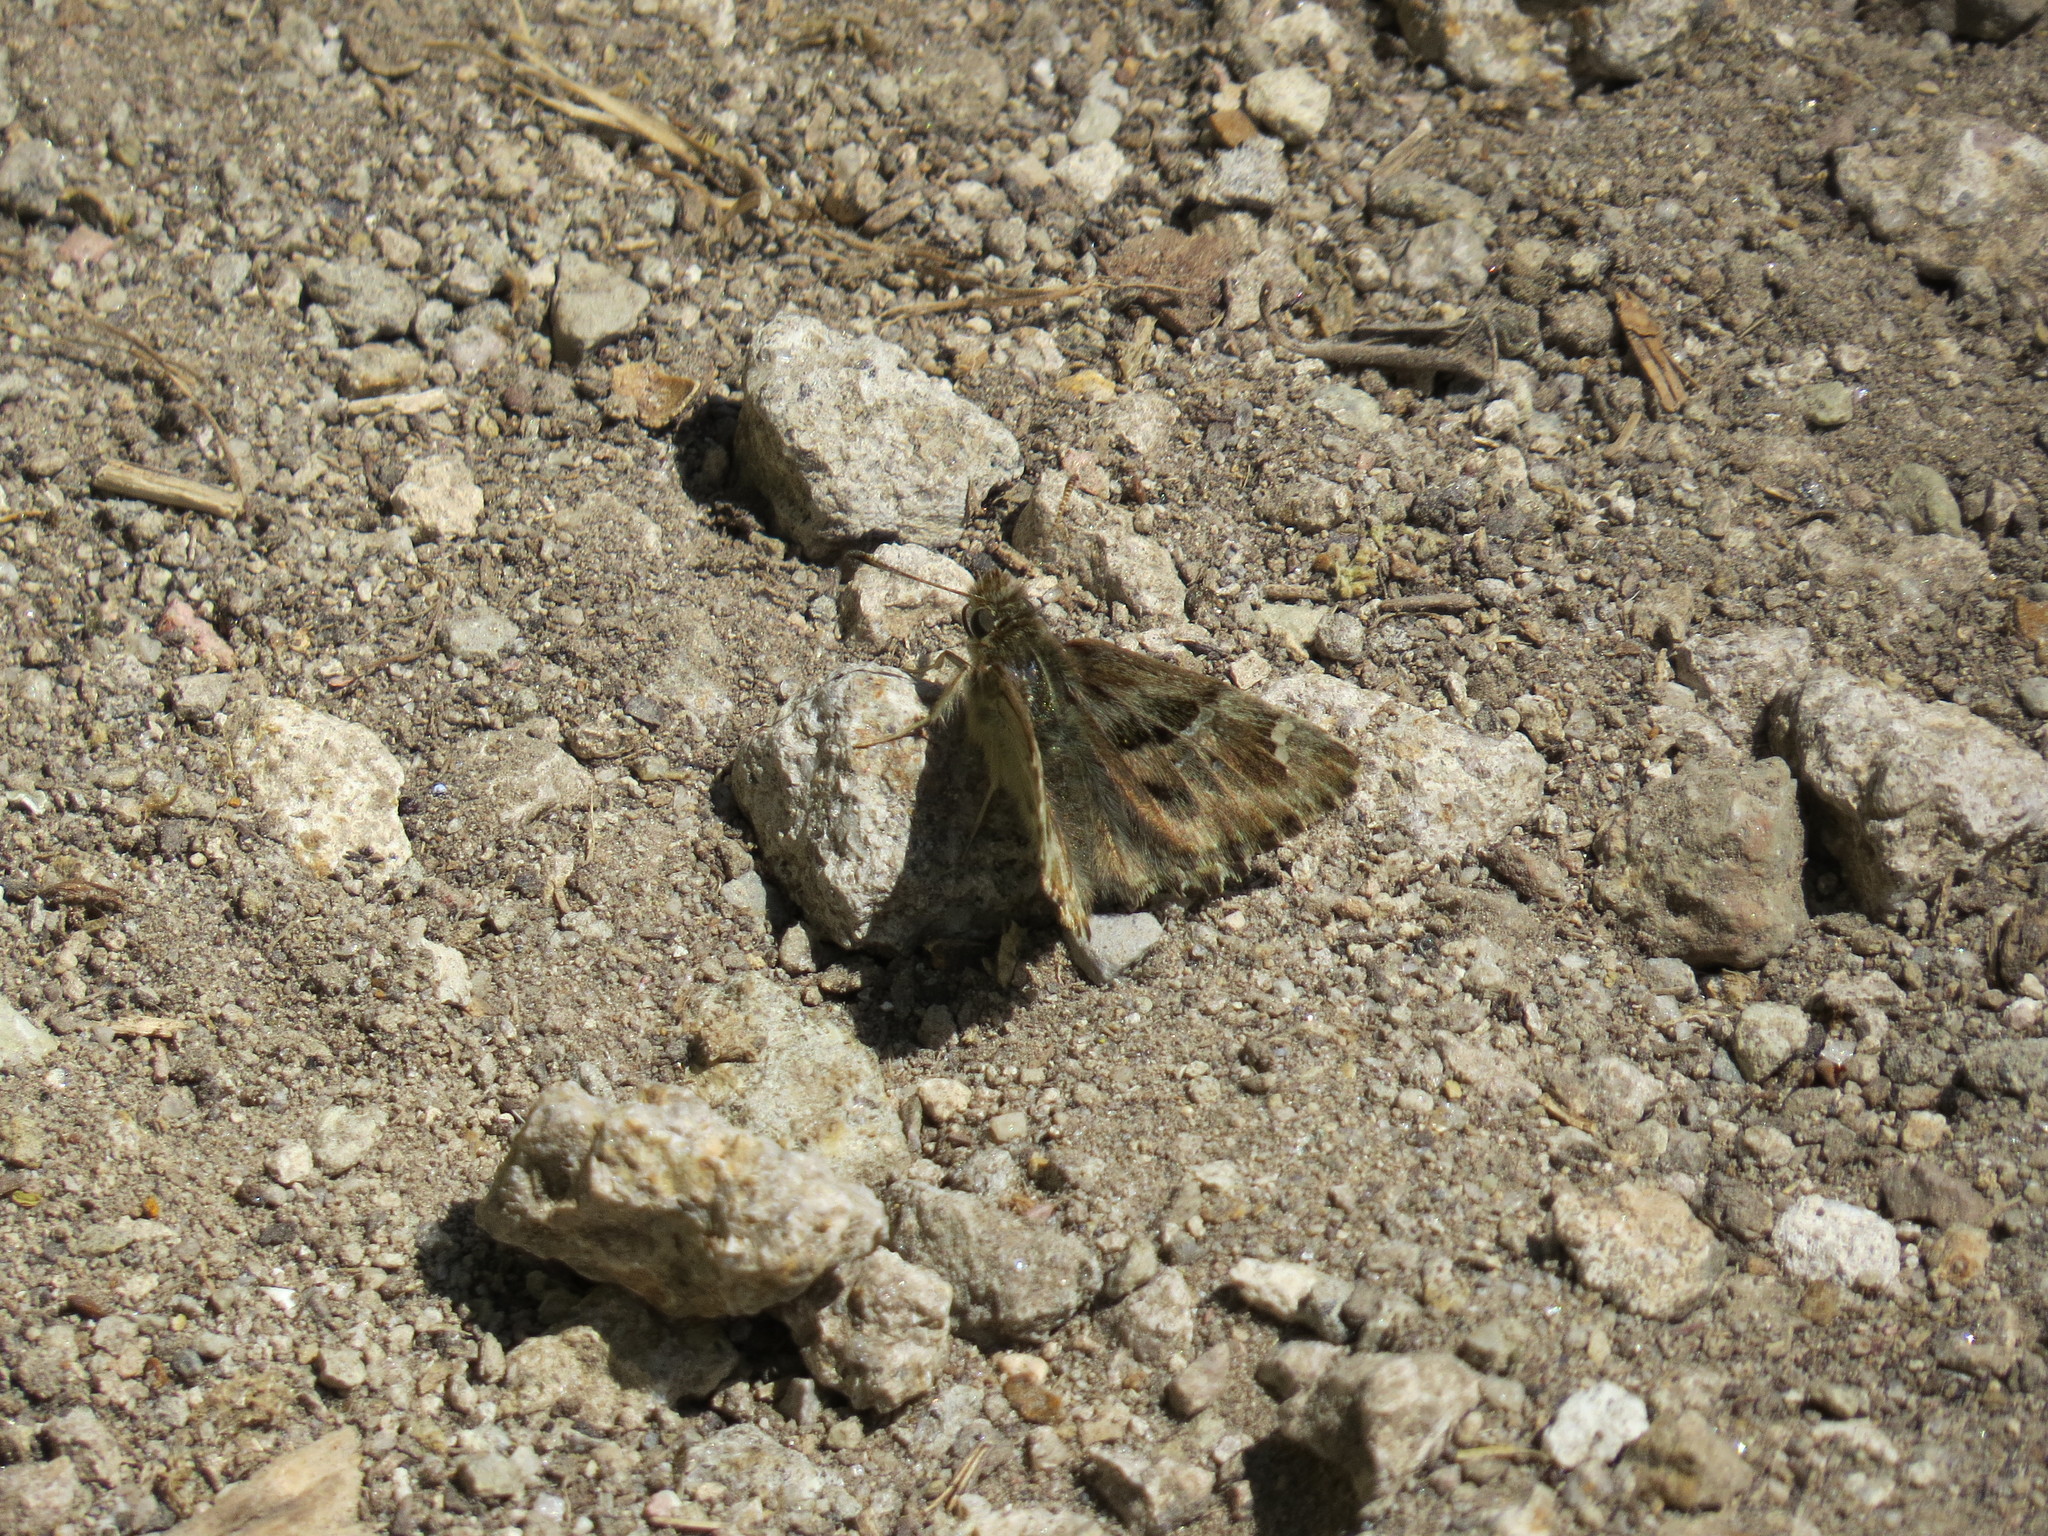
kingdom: Animalia
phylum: Arthropoda
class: Insecta
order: Lepidoptera
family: Hesperiidae
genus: Carcharodus
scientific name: Carcharodus alceae
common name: Mallow skipper
